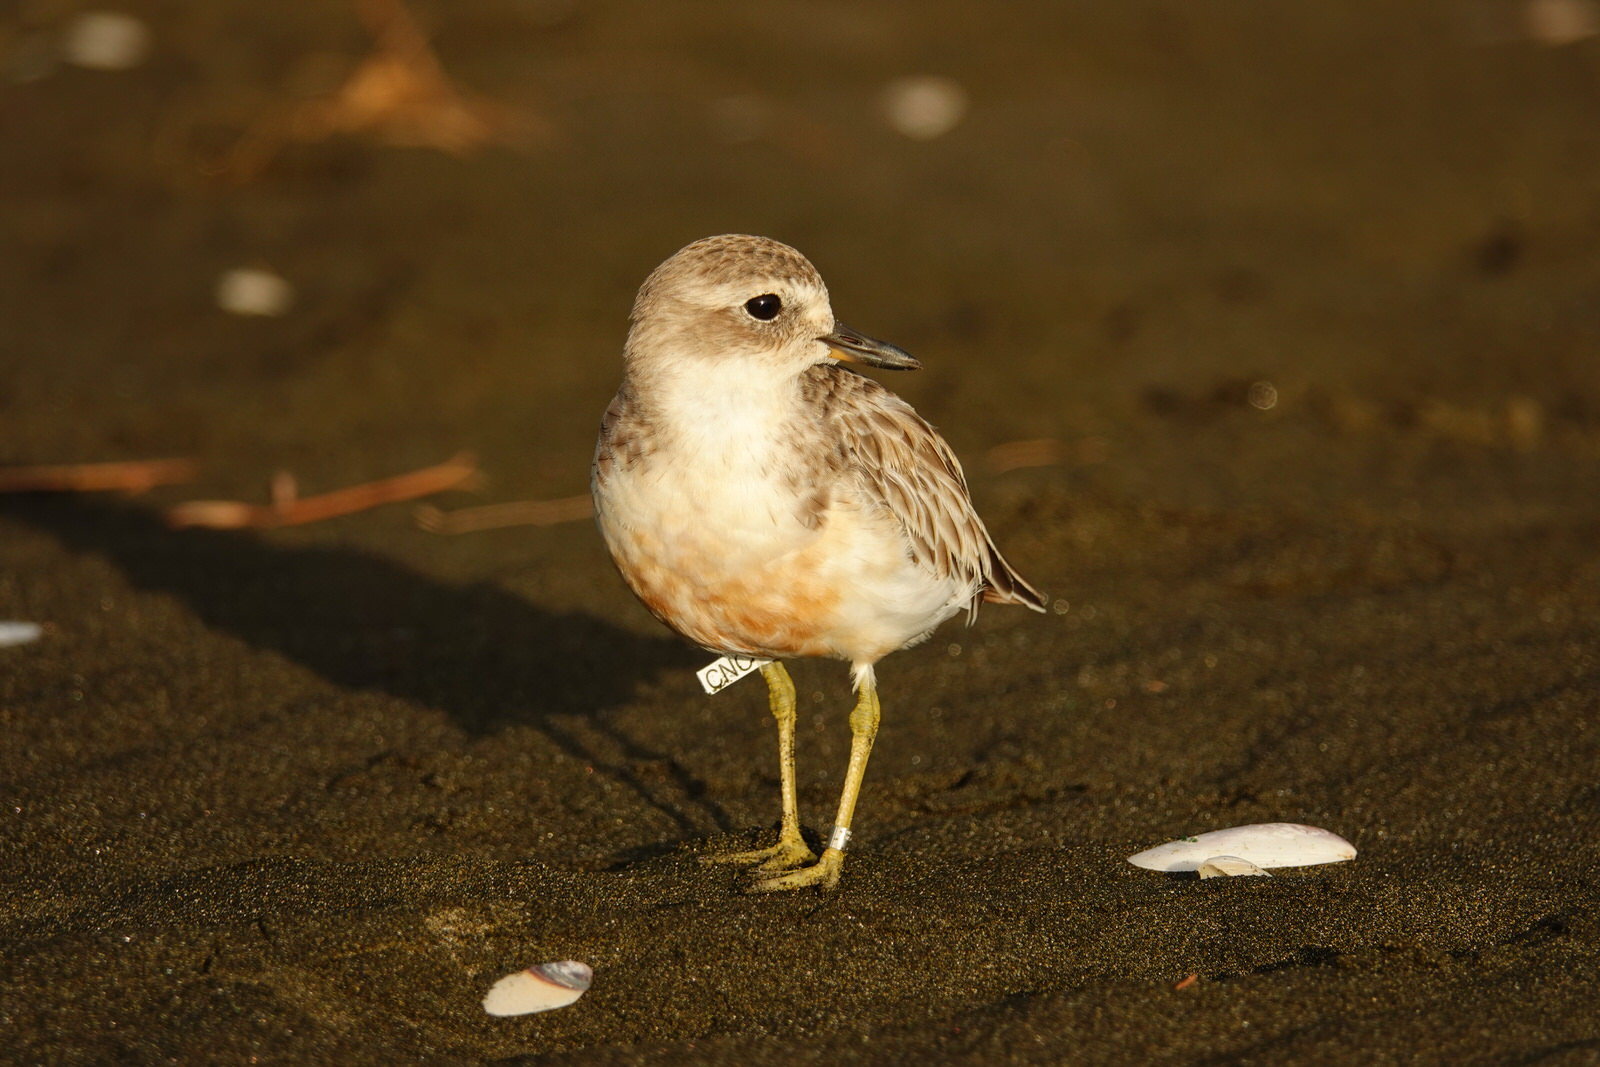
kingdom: Animalia
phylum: Chordata
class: Aves
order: Charadriiformes
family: Charadriidae
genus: Anarhynchus
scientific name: Anarhynchus
